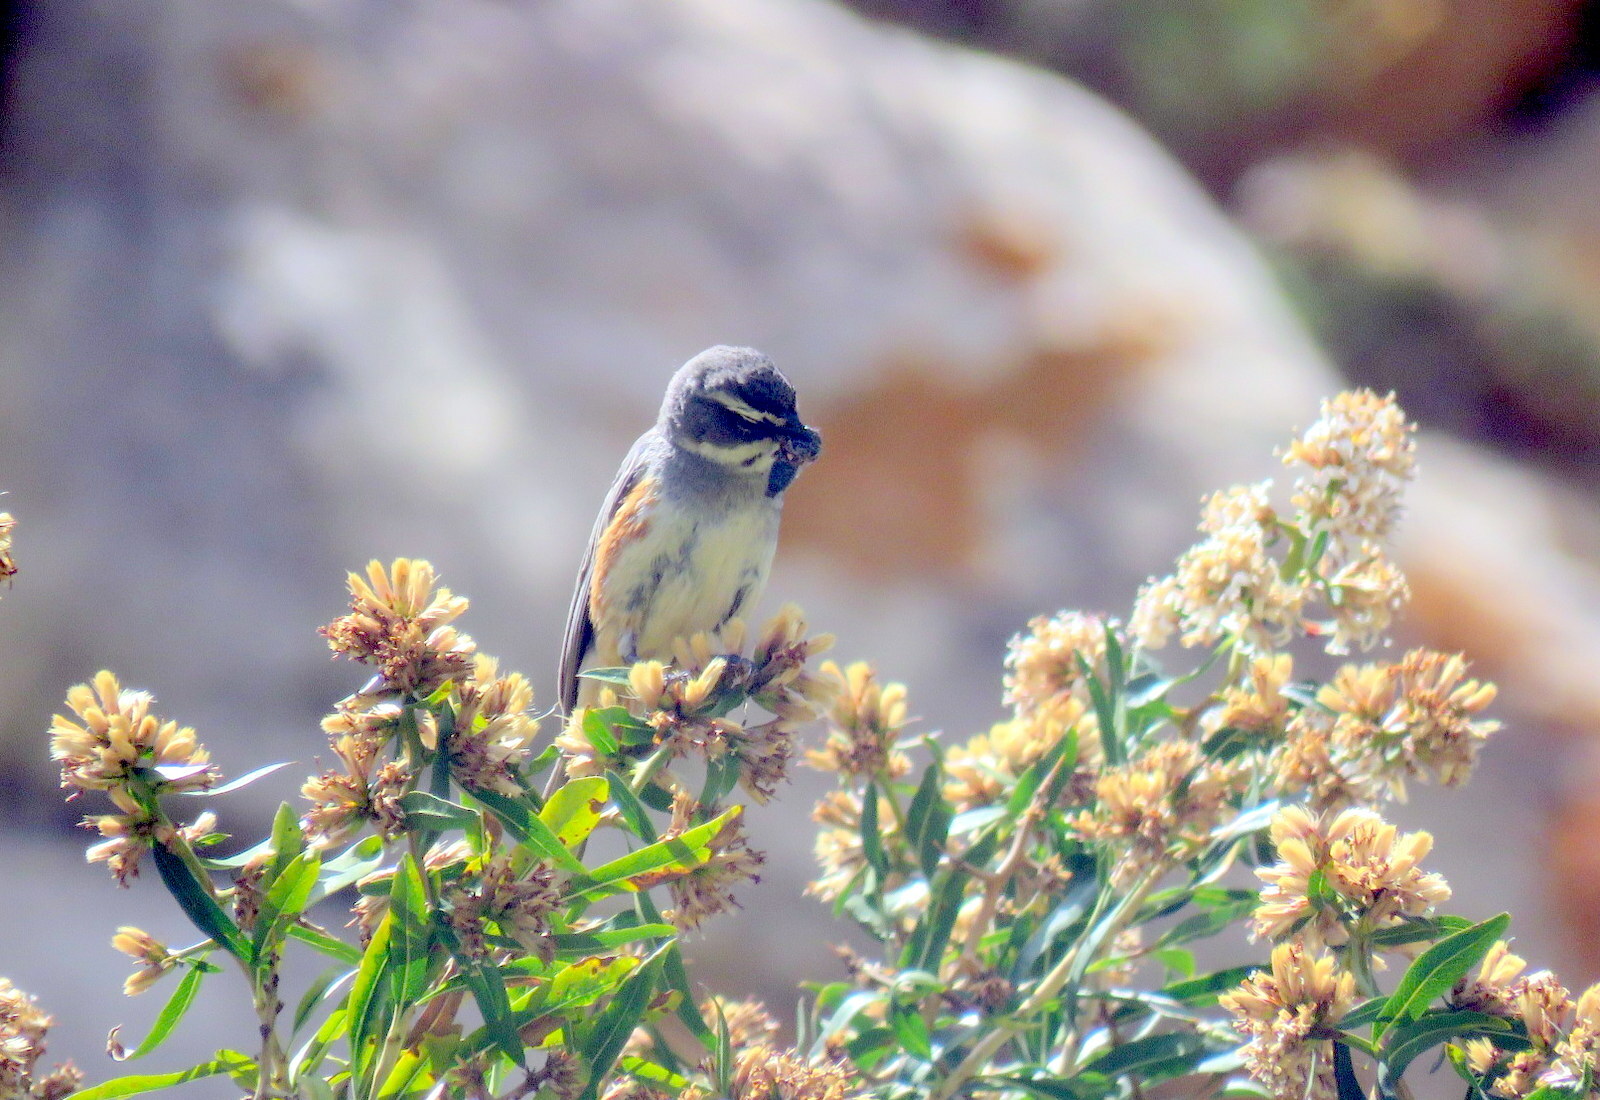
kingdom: Animalia
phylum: Chordata
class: Aves
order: Passeriformes
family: Thraupidae
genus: Poospizopsis
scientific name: Poospizopsis hypocondria
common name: Rufous-sided warbling-finch
